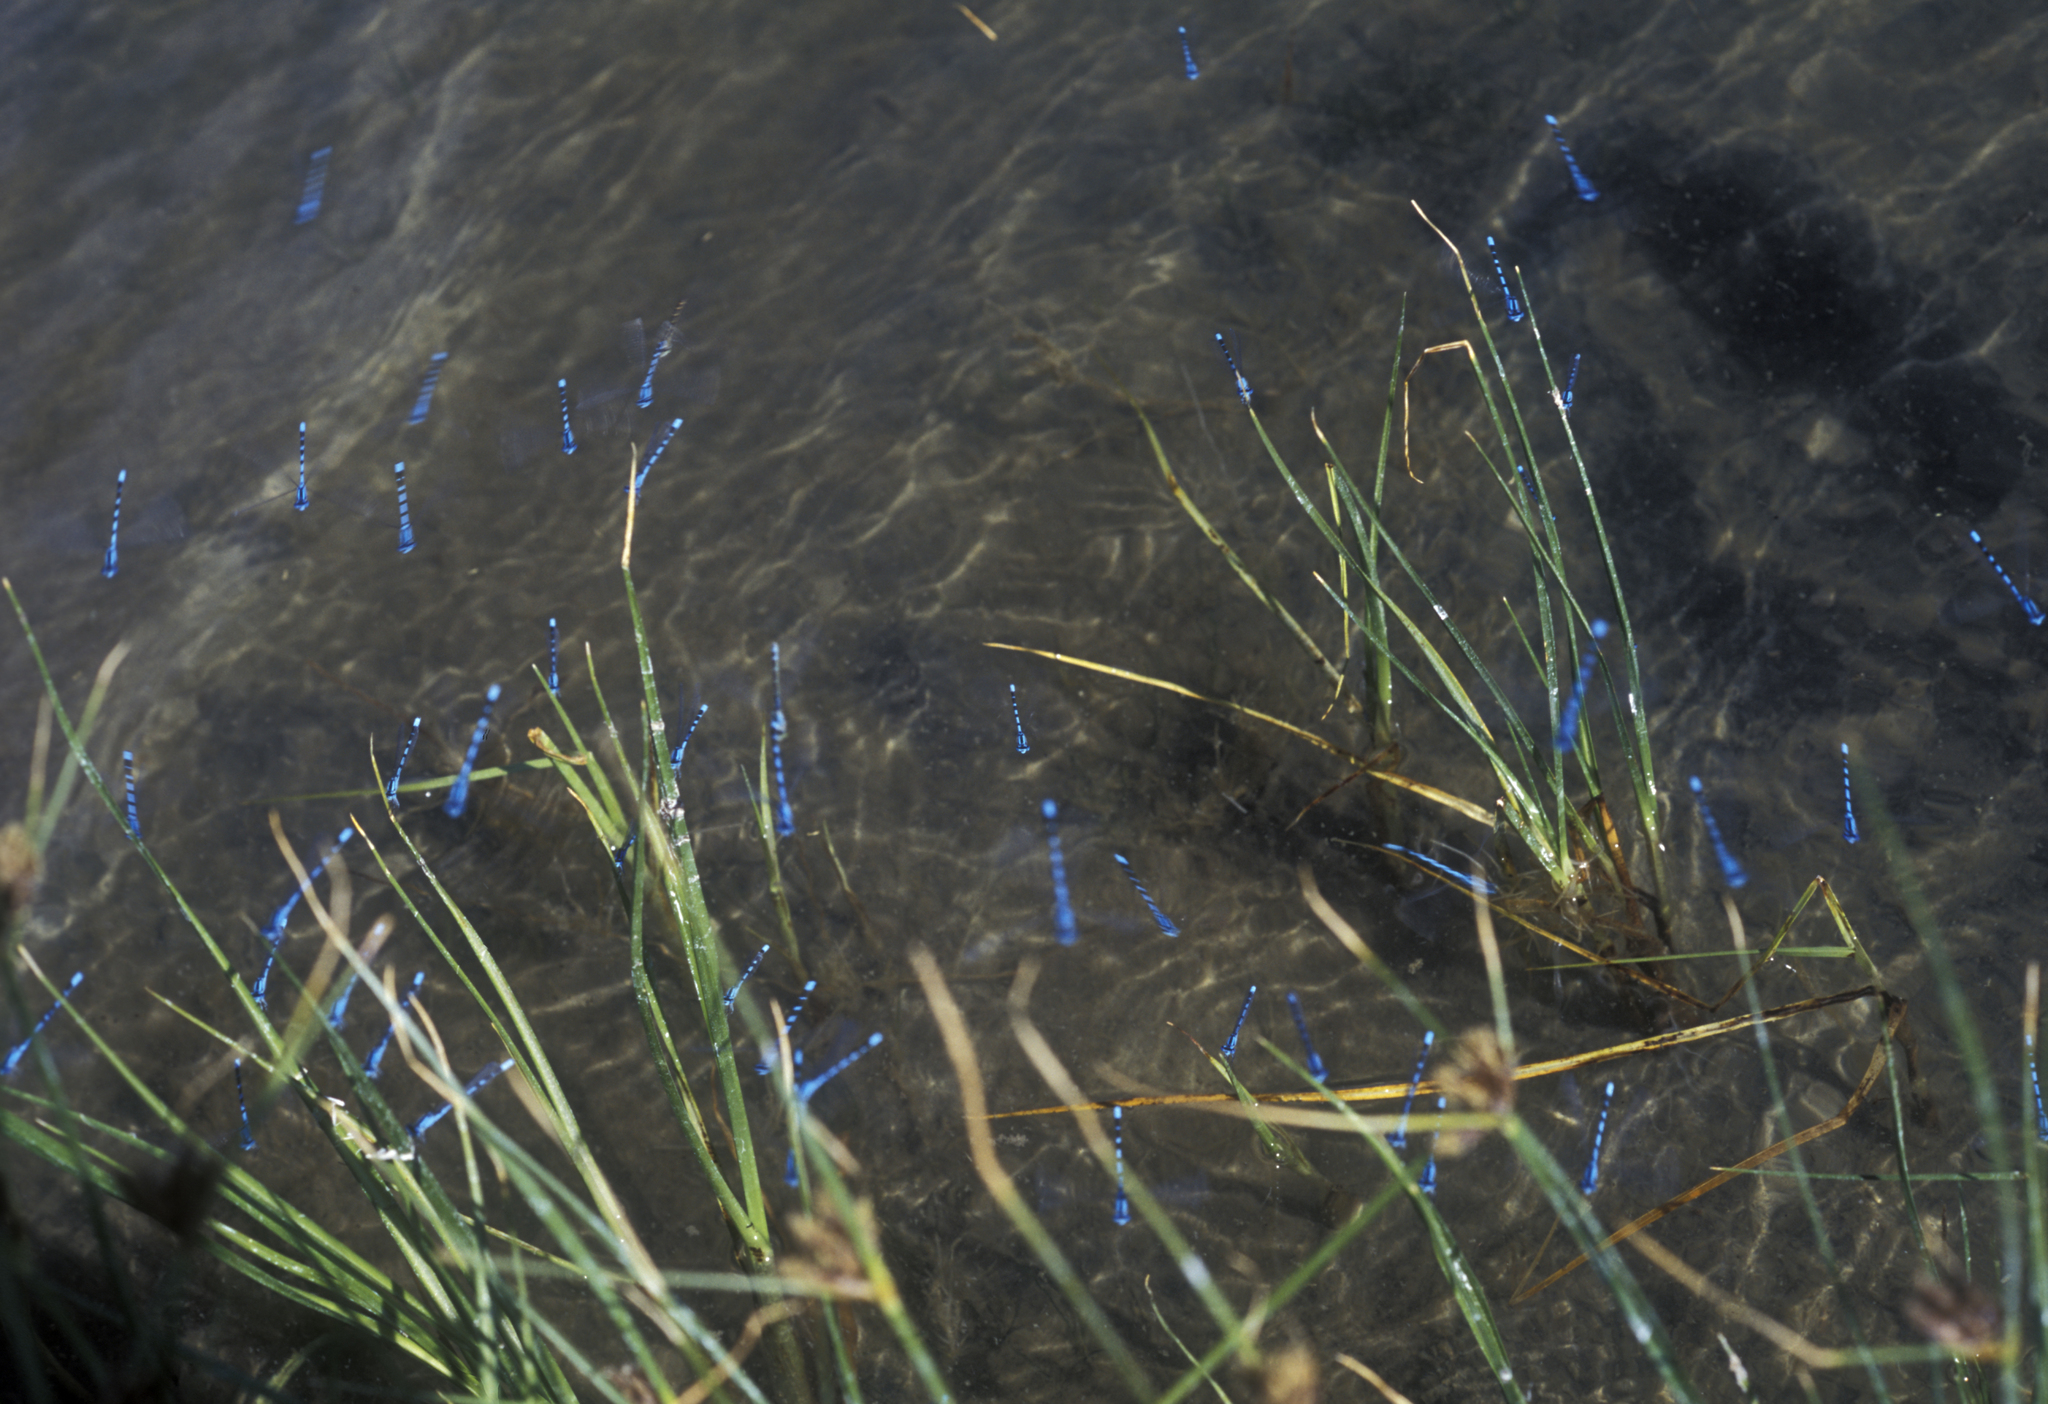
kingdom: Animalia
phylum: Arthropoda
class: Insecta
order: Odonata
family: Coenagrionidae
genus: Enallagma
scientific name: Enallagma cyathigerum
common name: Common blue damselfly
